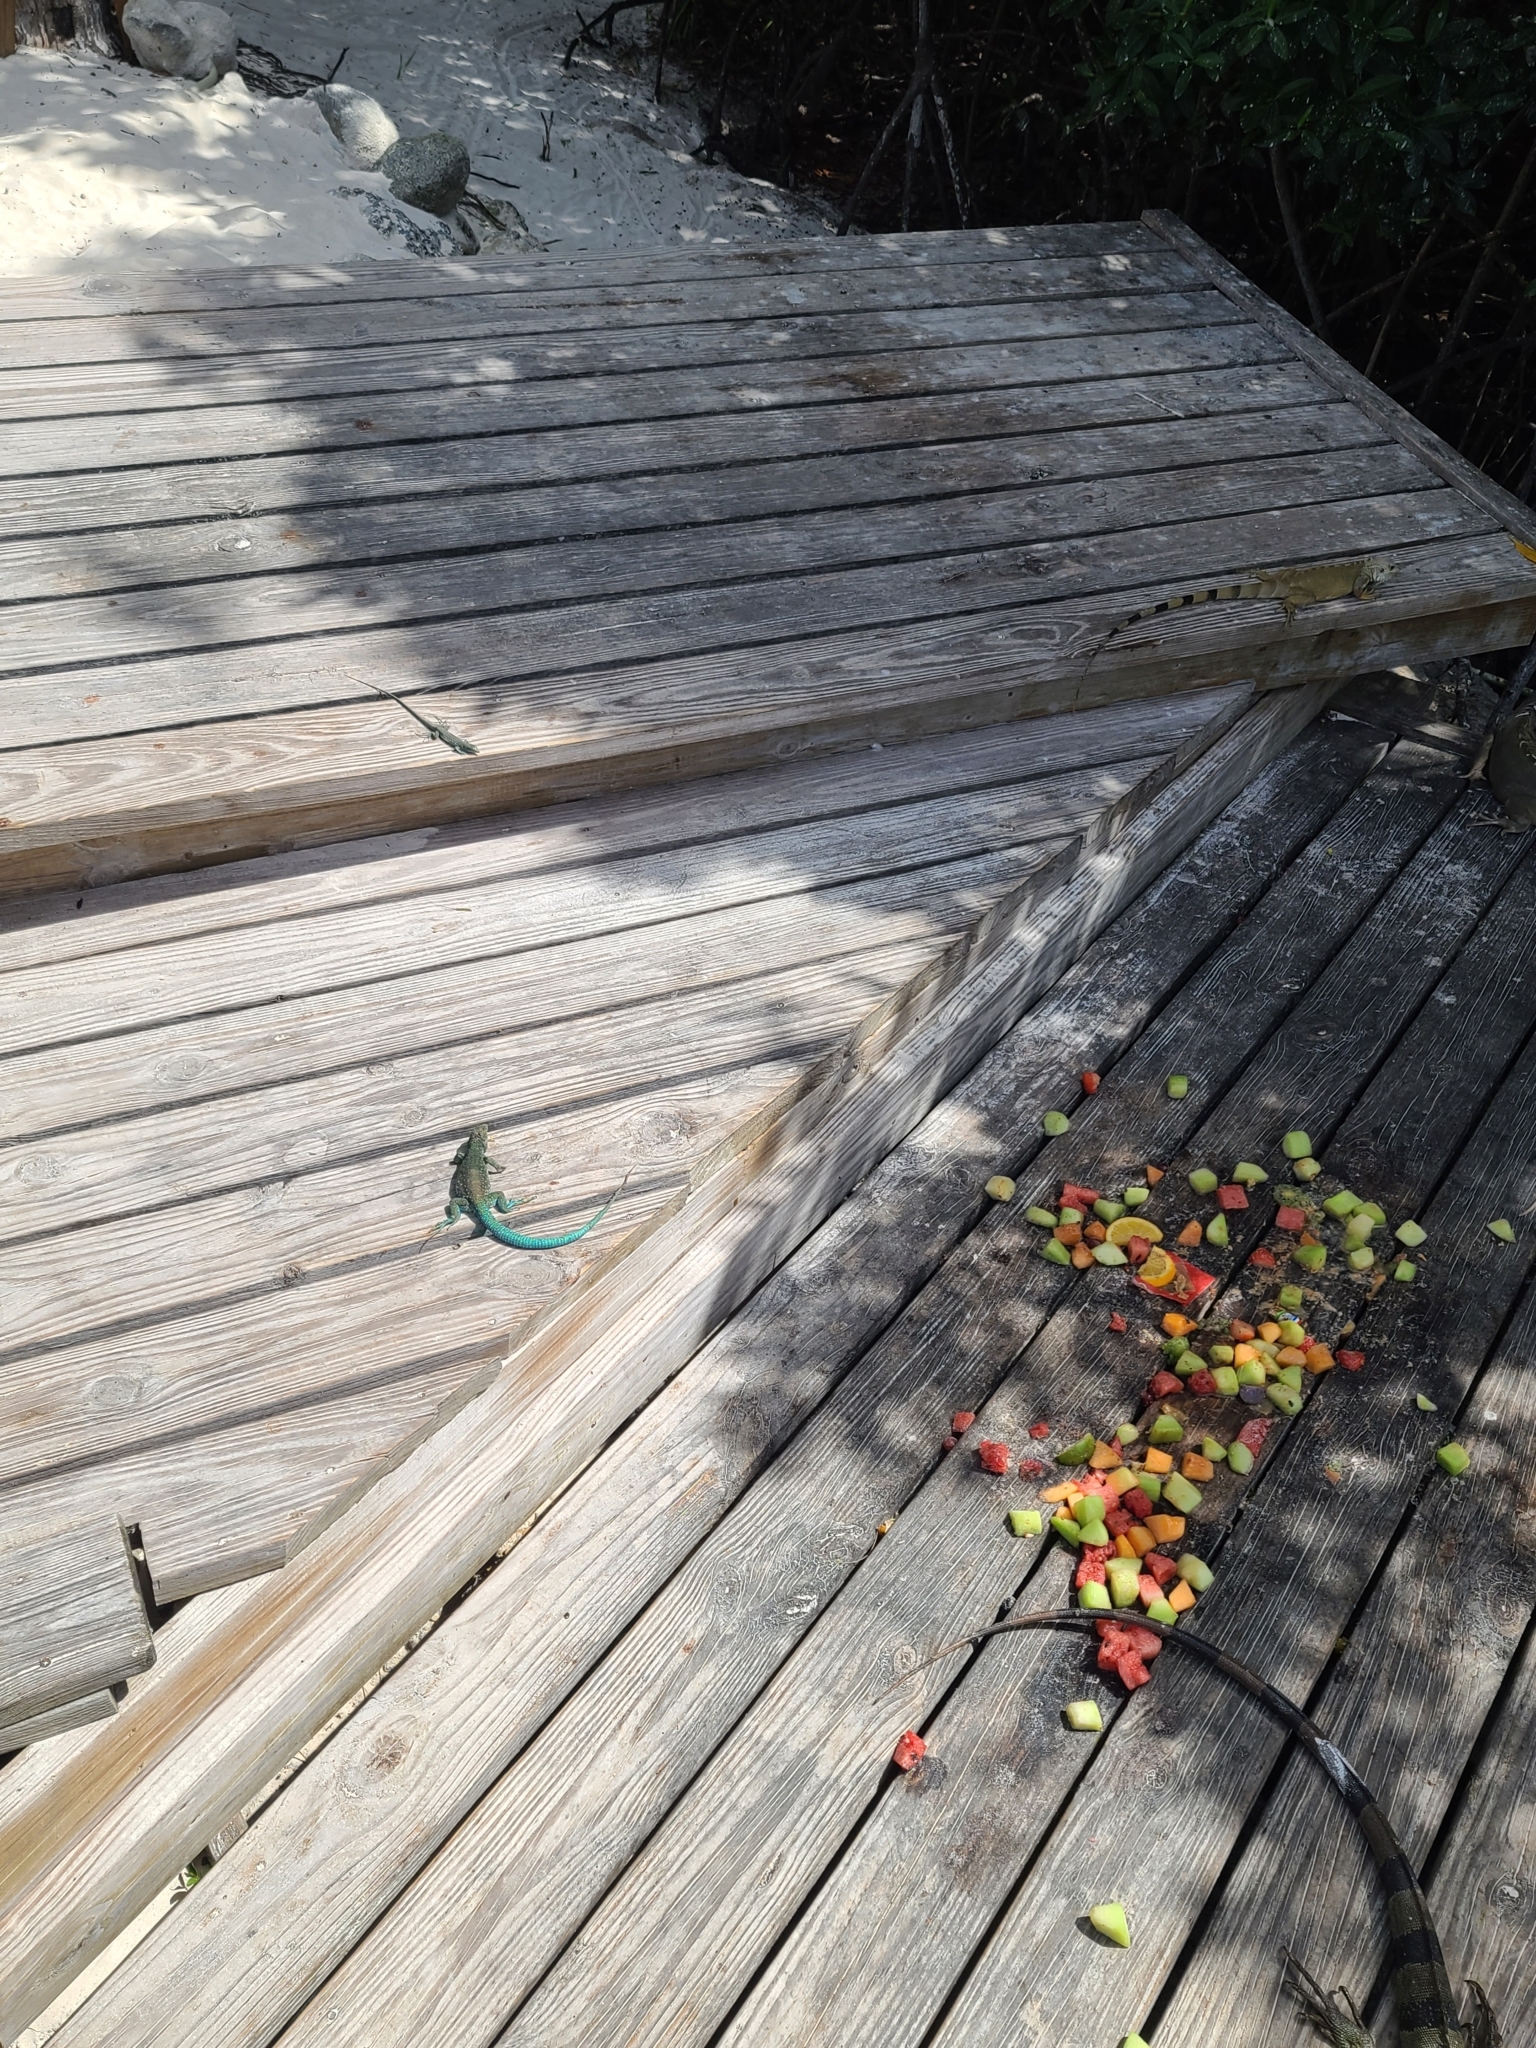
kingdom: Animalia
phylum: Chordata
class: Squamata
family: Teiidae
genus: Cnemidophorus
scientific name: Cnemidophorus arubensis
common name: Aruba whiptail
